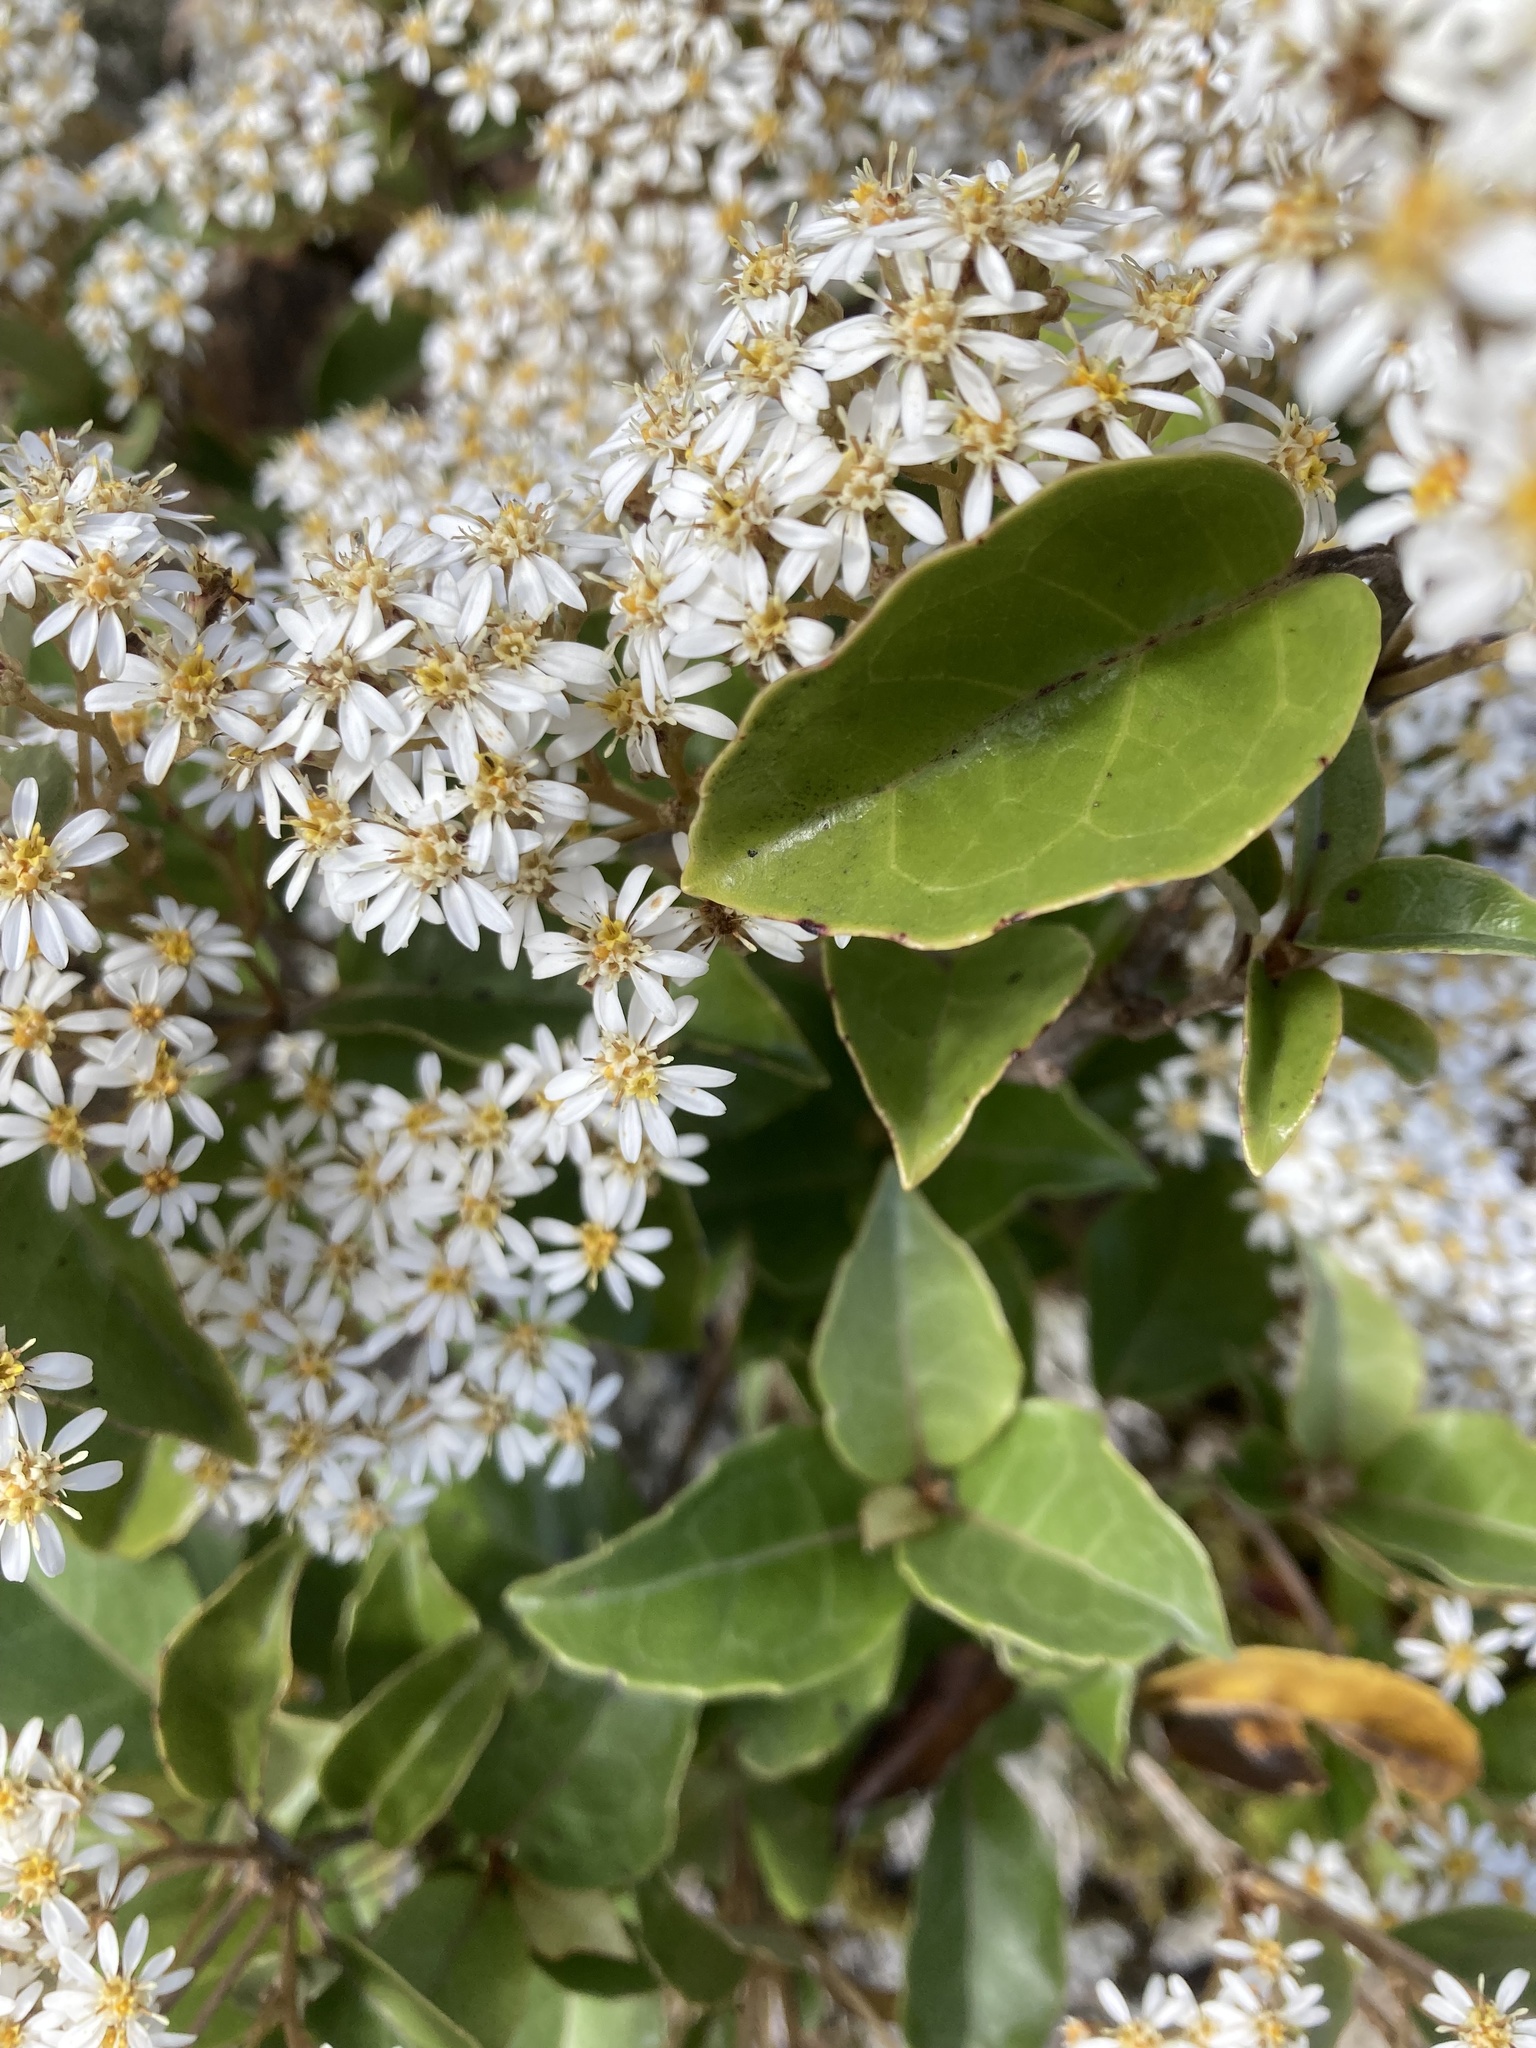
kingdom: Plantae
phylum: Tracheophyta
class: Magnoliopsida
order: Asterales
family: Asteraceae
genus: Olearia
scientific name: Olearia arborescens
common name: Glossy tree daisy
